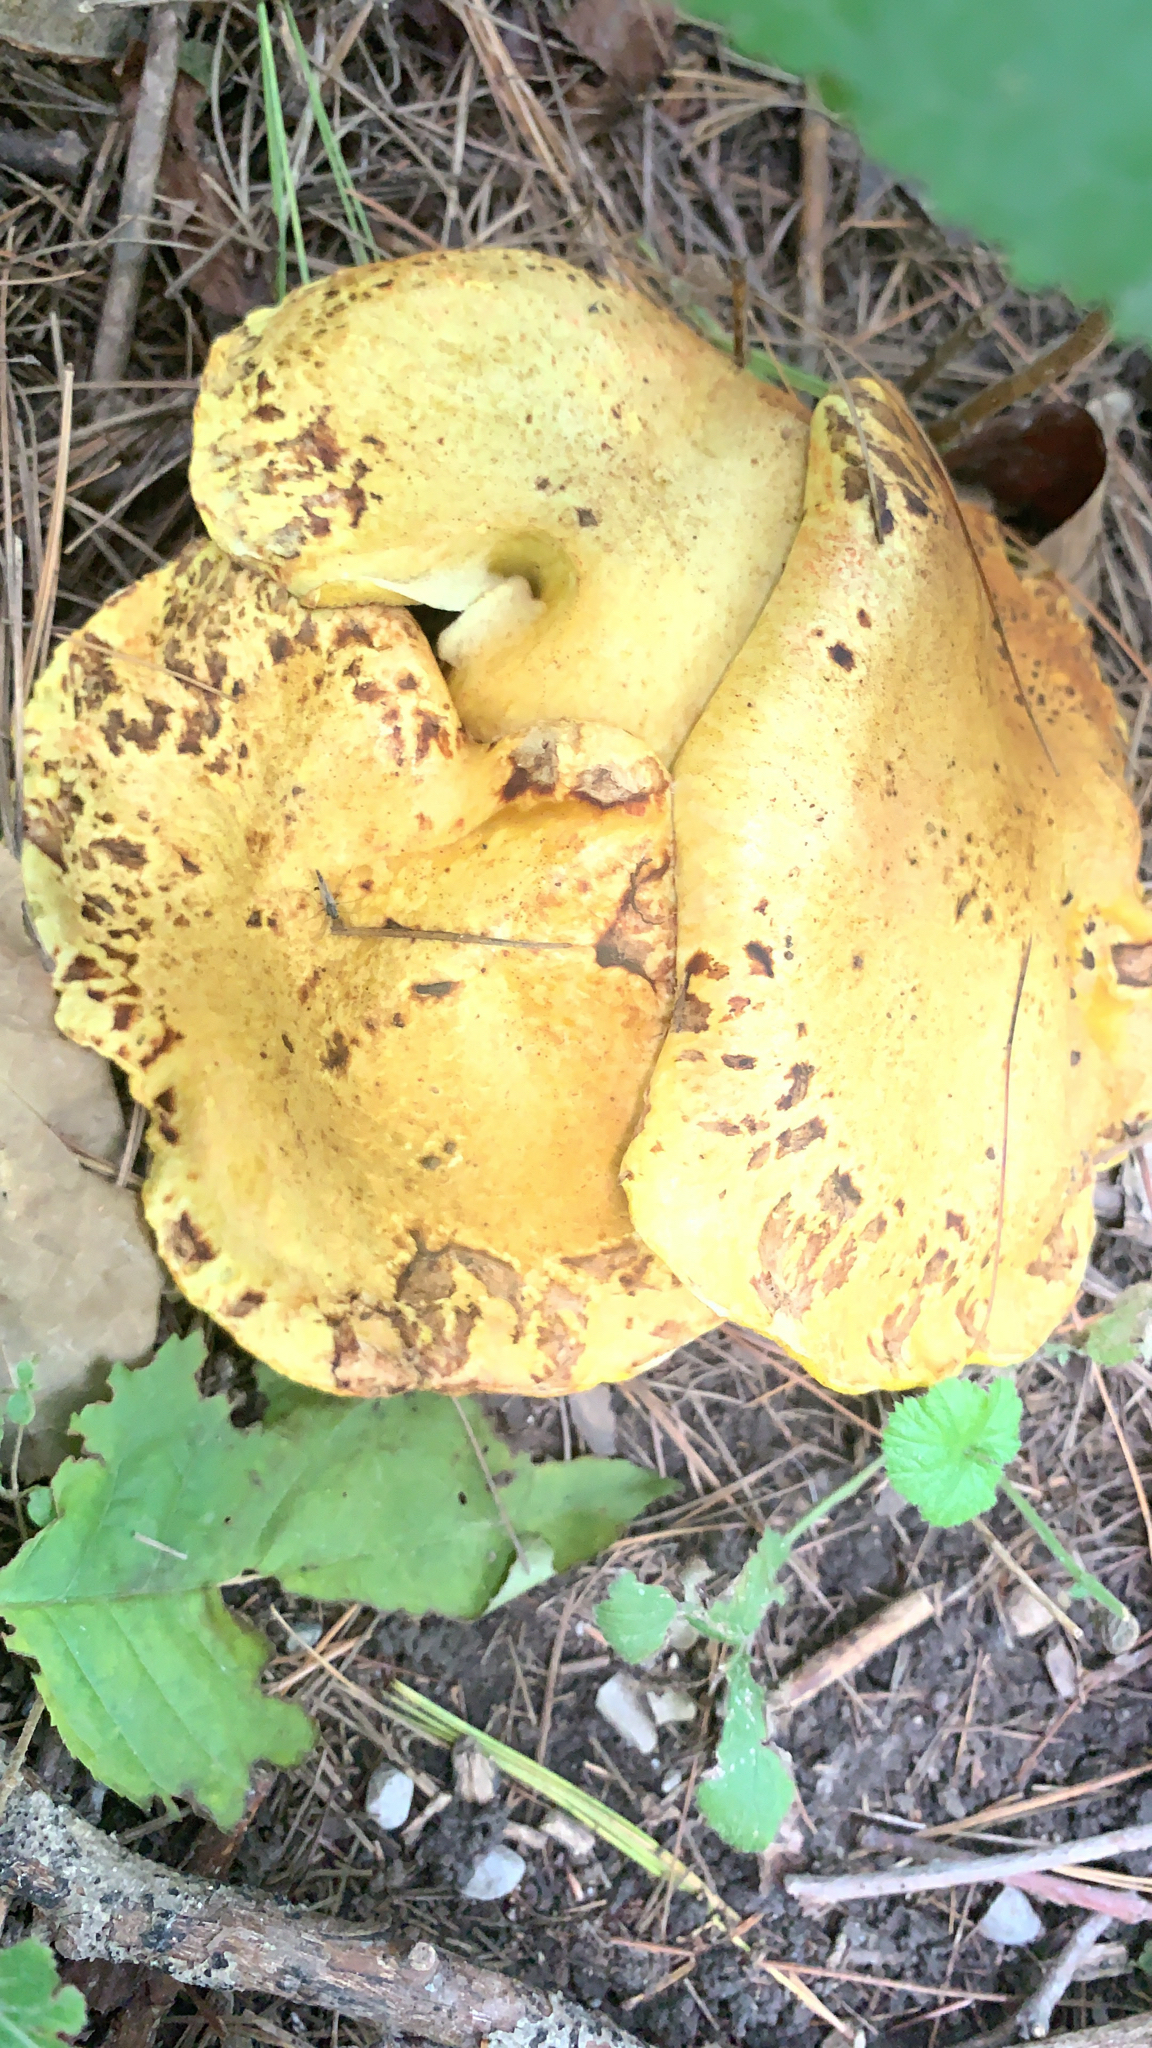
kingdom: Fungi
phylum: Basidiomycota
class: Agaricomycetes
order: Boletales
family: Suillaceae
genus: Suillus
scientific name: Suillus americanus
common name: Chicken fat mushroom
